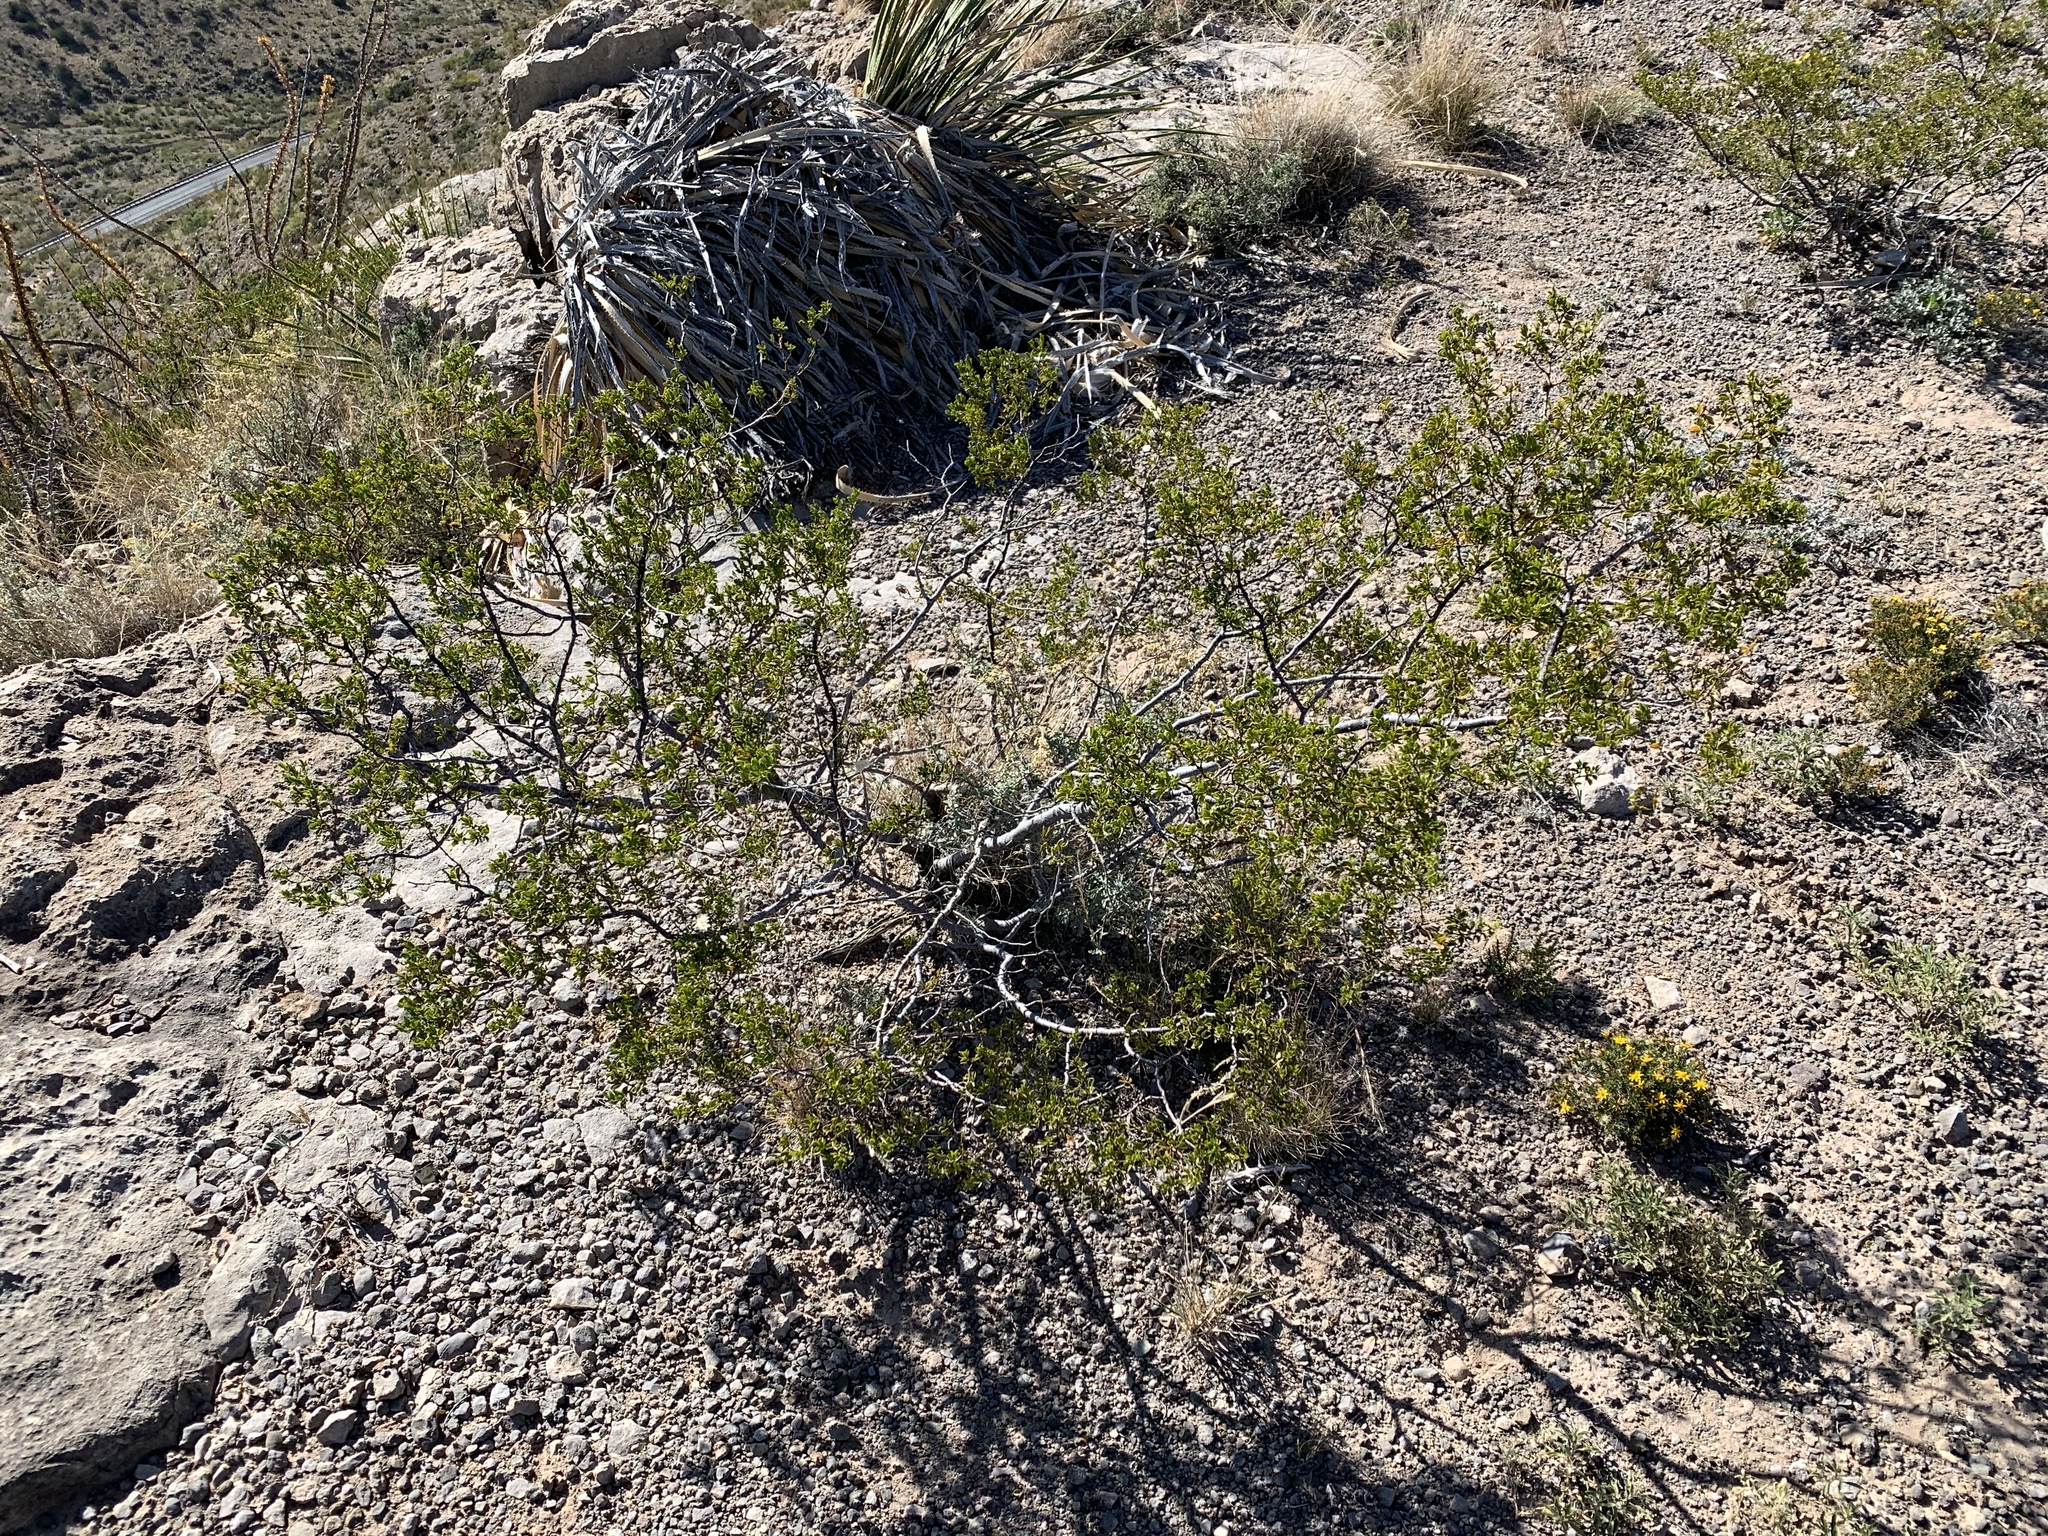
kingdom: Plantae
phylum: Tracheophyta
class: Magnoliopsida
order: Zygophyllales
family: Zygophyllaceae
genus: Larrea
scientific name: Larrea tridentata
